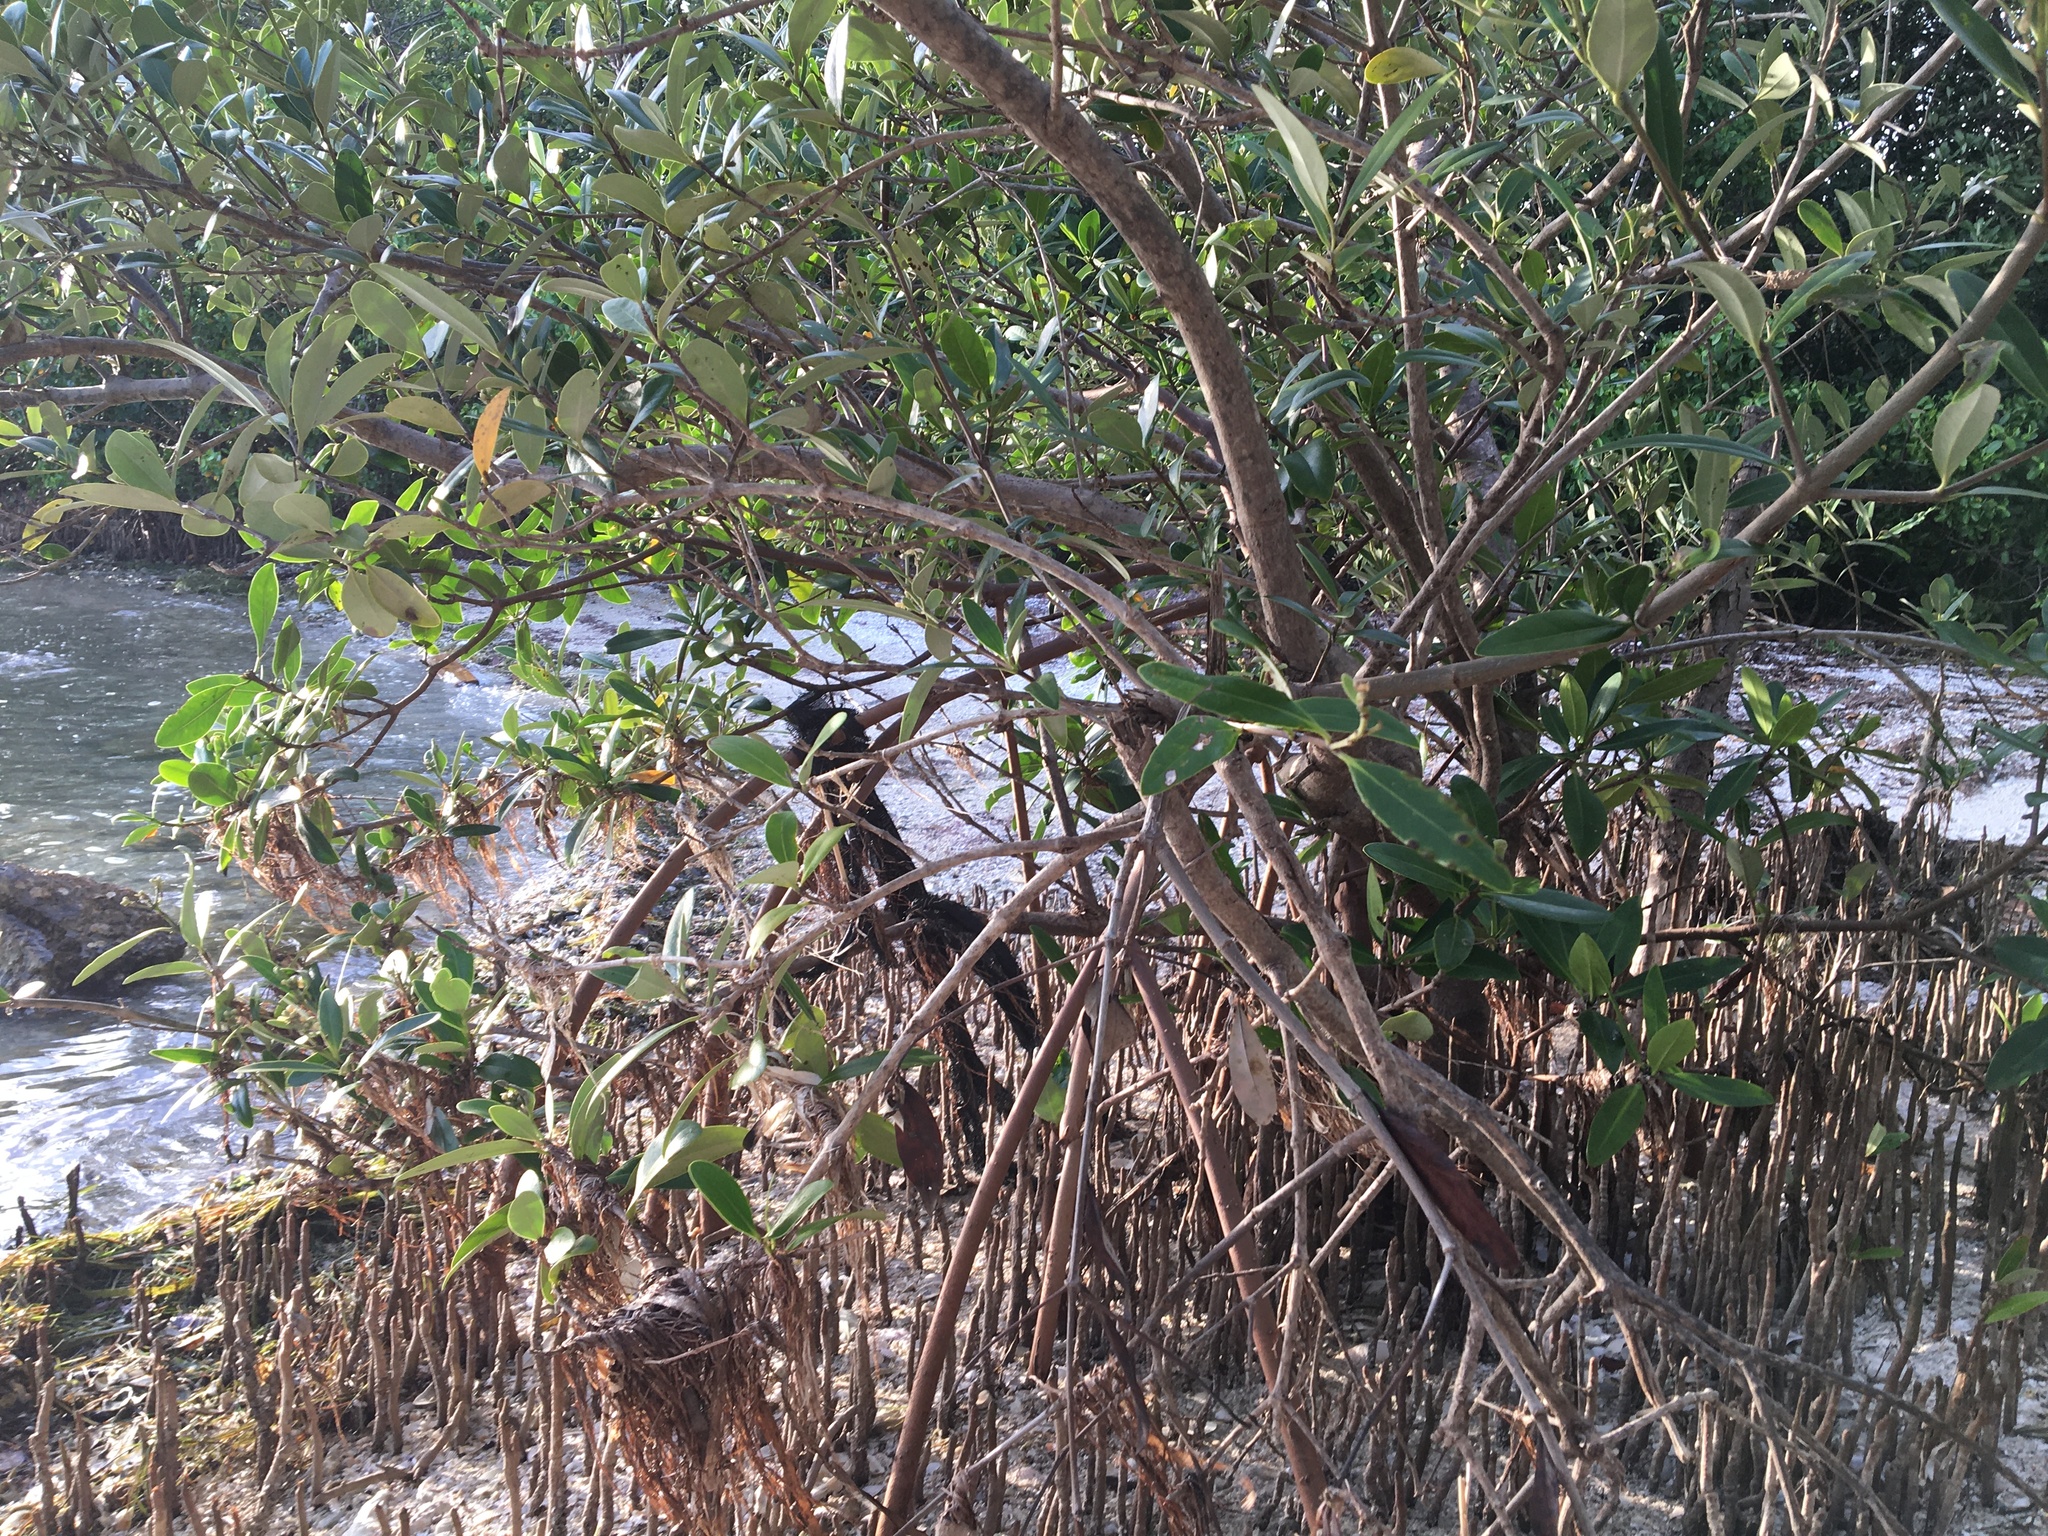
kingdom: Plantae
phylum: Tracheophyta
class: Magnoliopsida
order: Lamiales
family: Acanthaceae
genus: Avicennia
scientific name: Avicennia germinans
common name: Black mangrove
